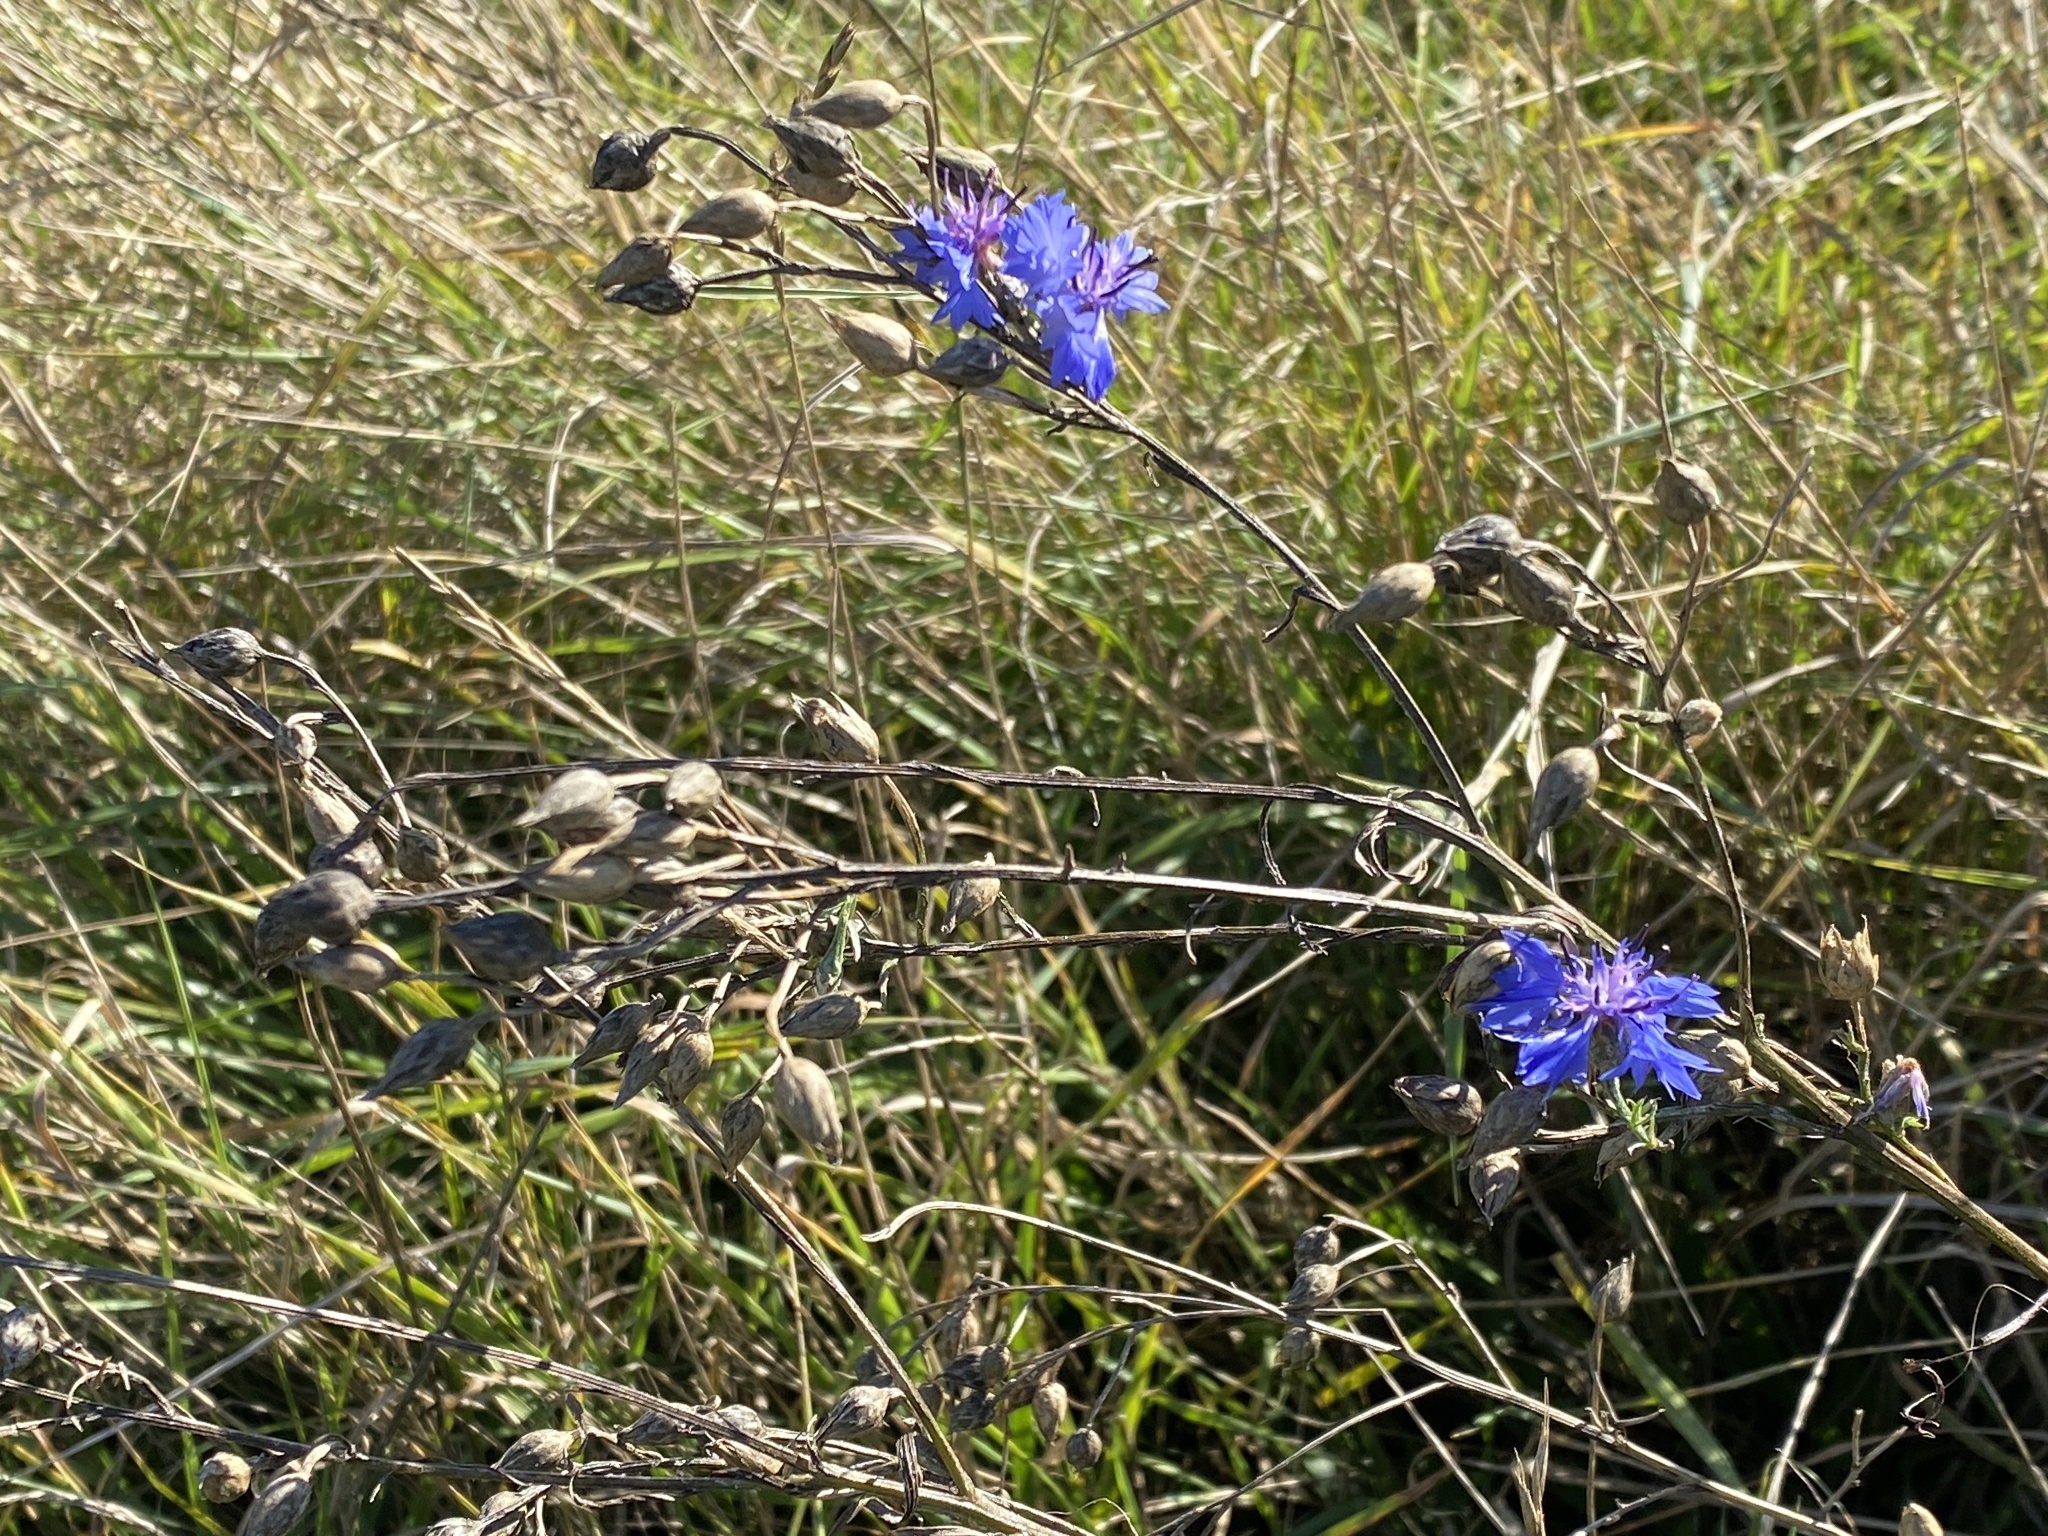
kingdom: Plantae
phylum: Tracheophyta
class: Magnoliopsida
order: Asterales
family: Asteraceae
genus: Centaurea
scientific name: Centaurea cyanus
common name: Cornflower
